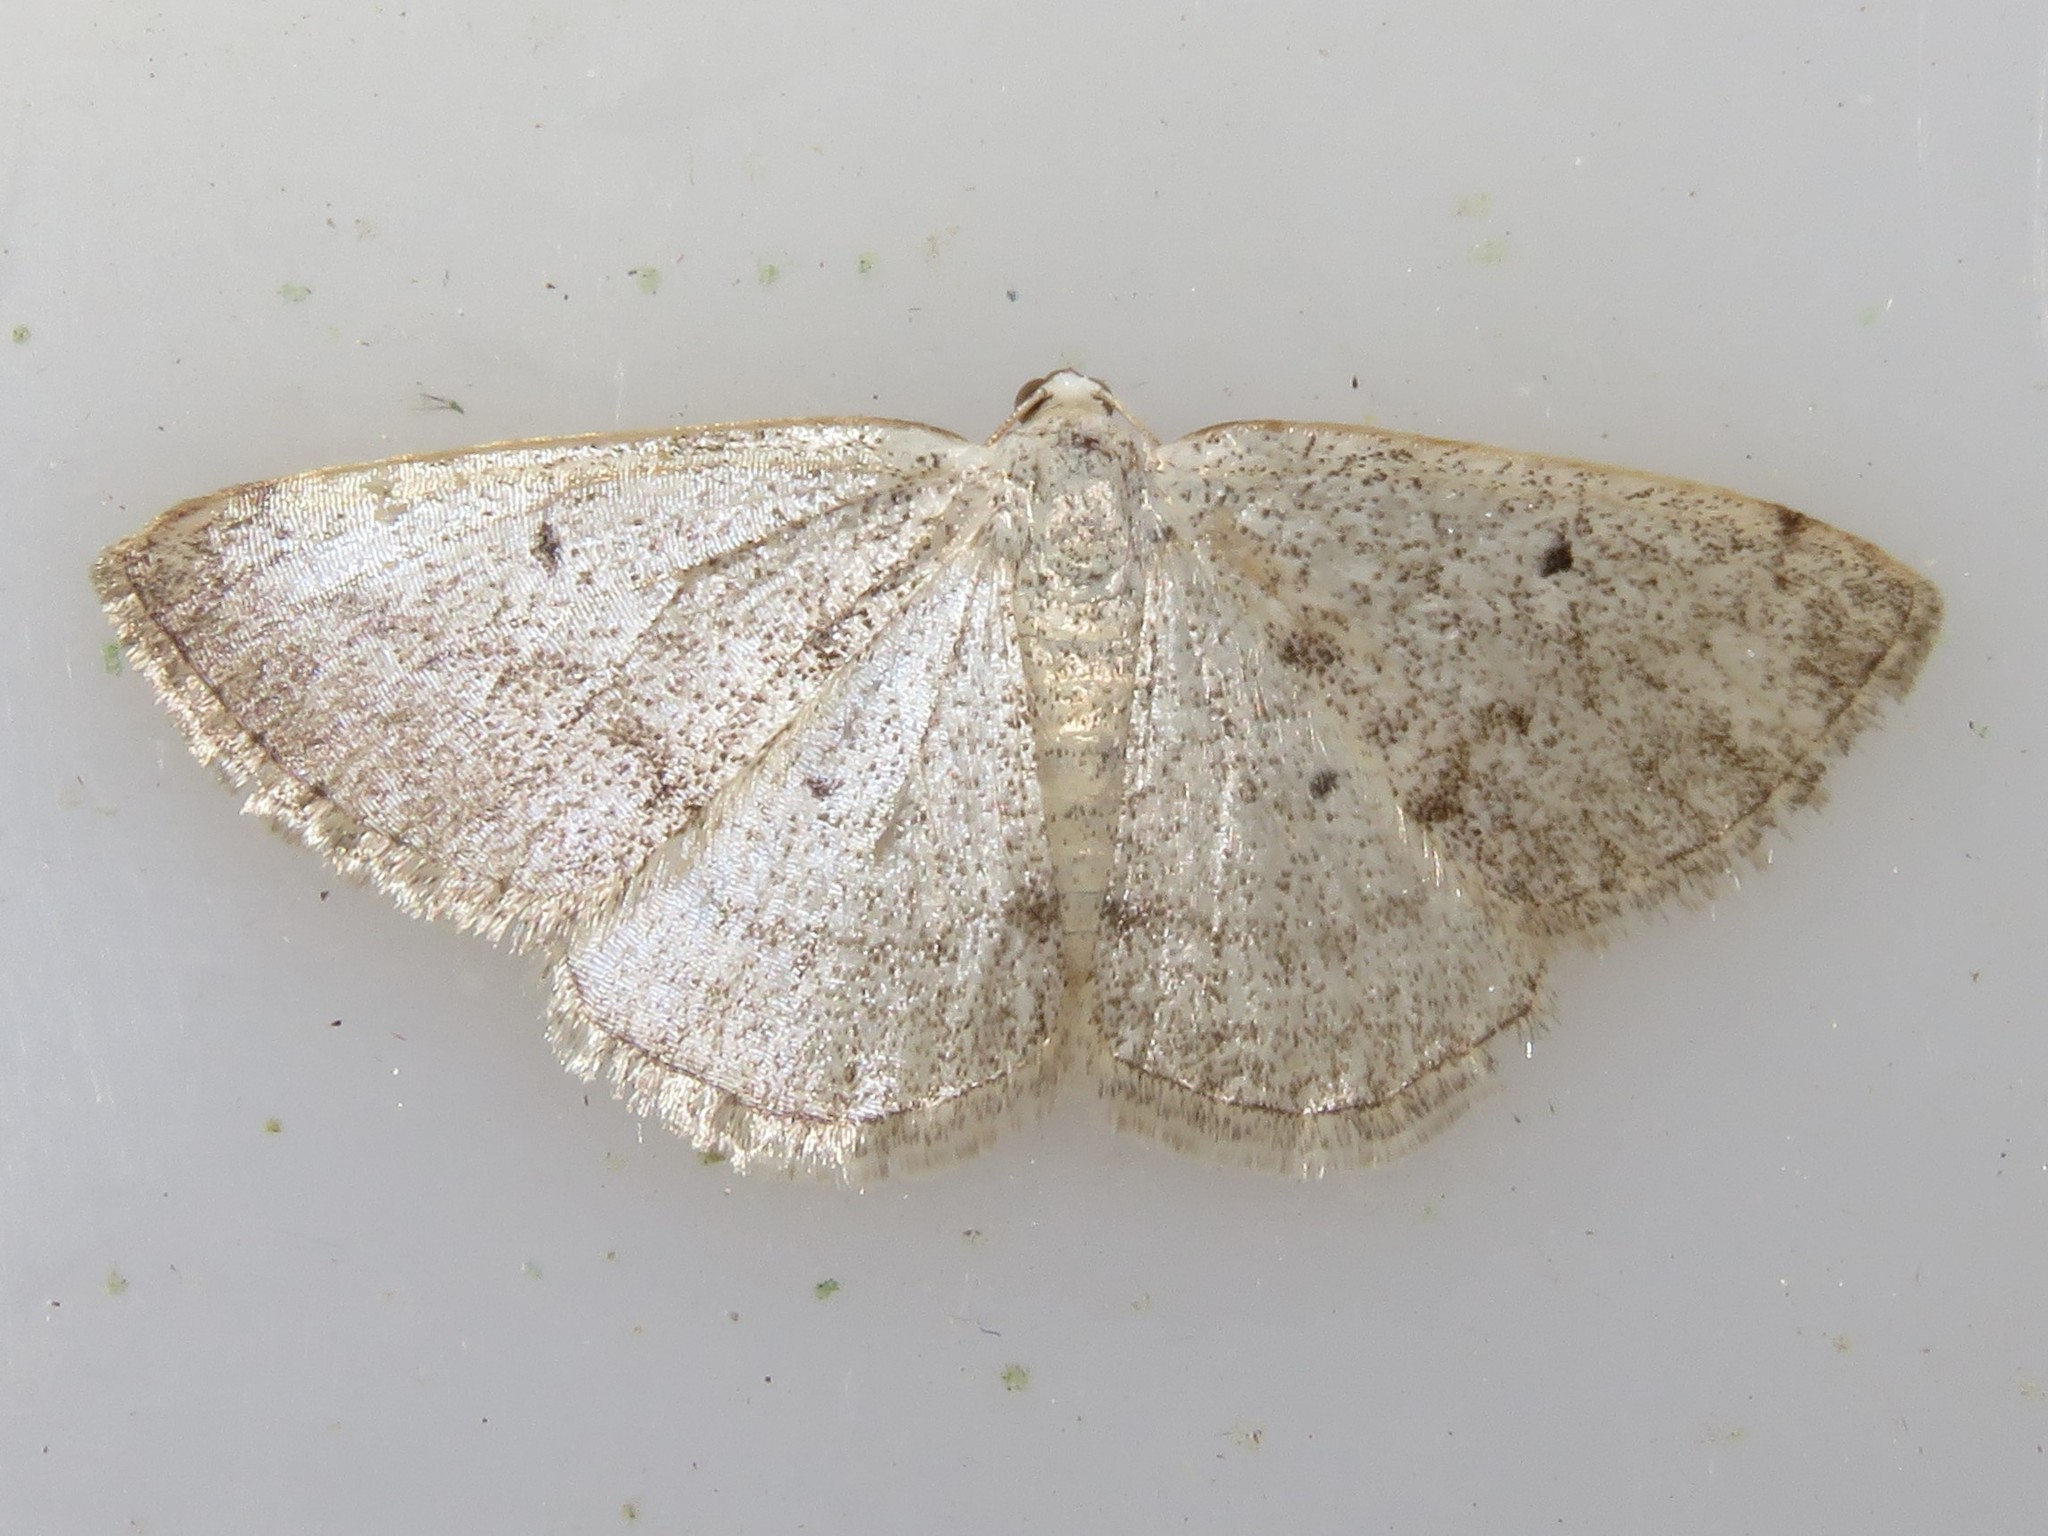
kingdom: Animalia
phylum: Arthropoda
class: Insecta
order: Lepidoptera
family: Geometridae
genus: Lomographa
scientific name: Lomographa glomeraria
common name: Gray spring moth
